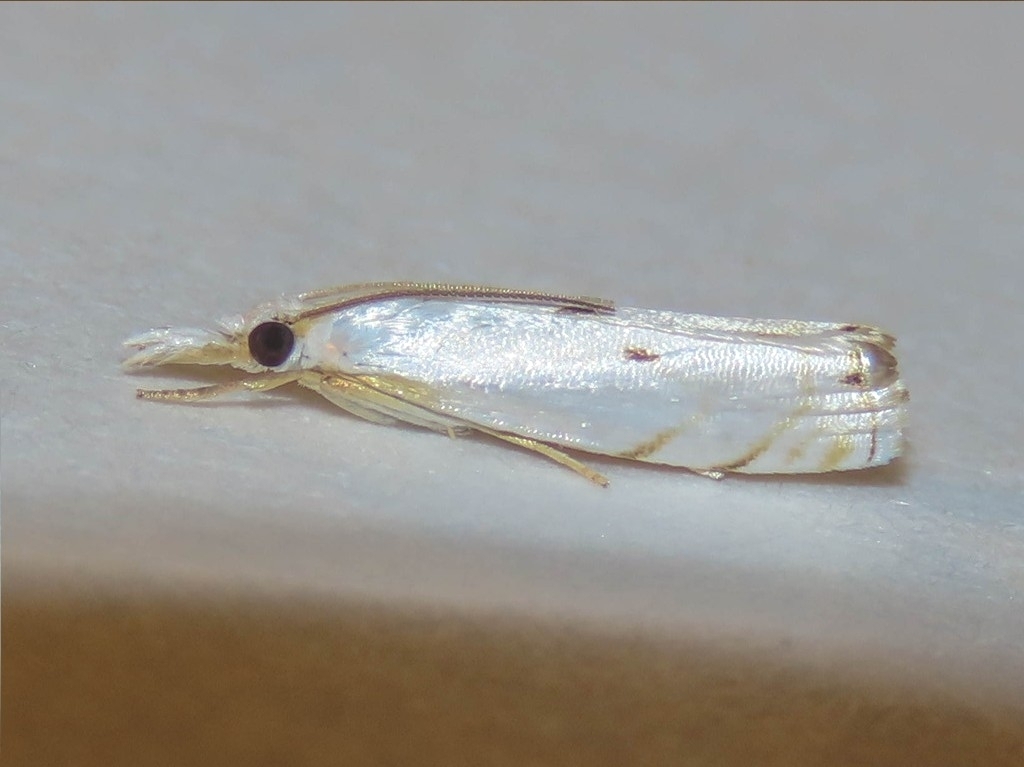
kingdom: Animalia
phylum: Arthropoda
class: Insecta
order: Lepidoptera
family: Crambidae
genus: Microcrambus
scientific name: Microcrambus biguttellus
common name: Gold-stripe grass-veneer moth
